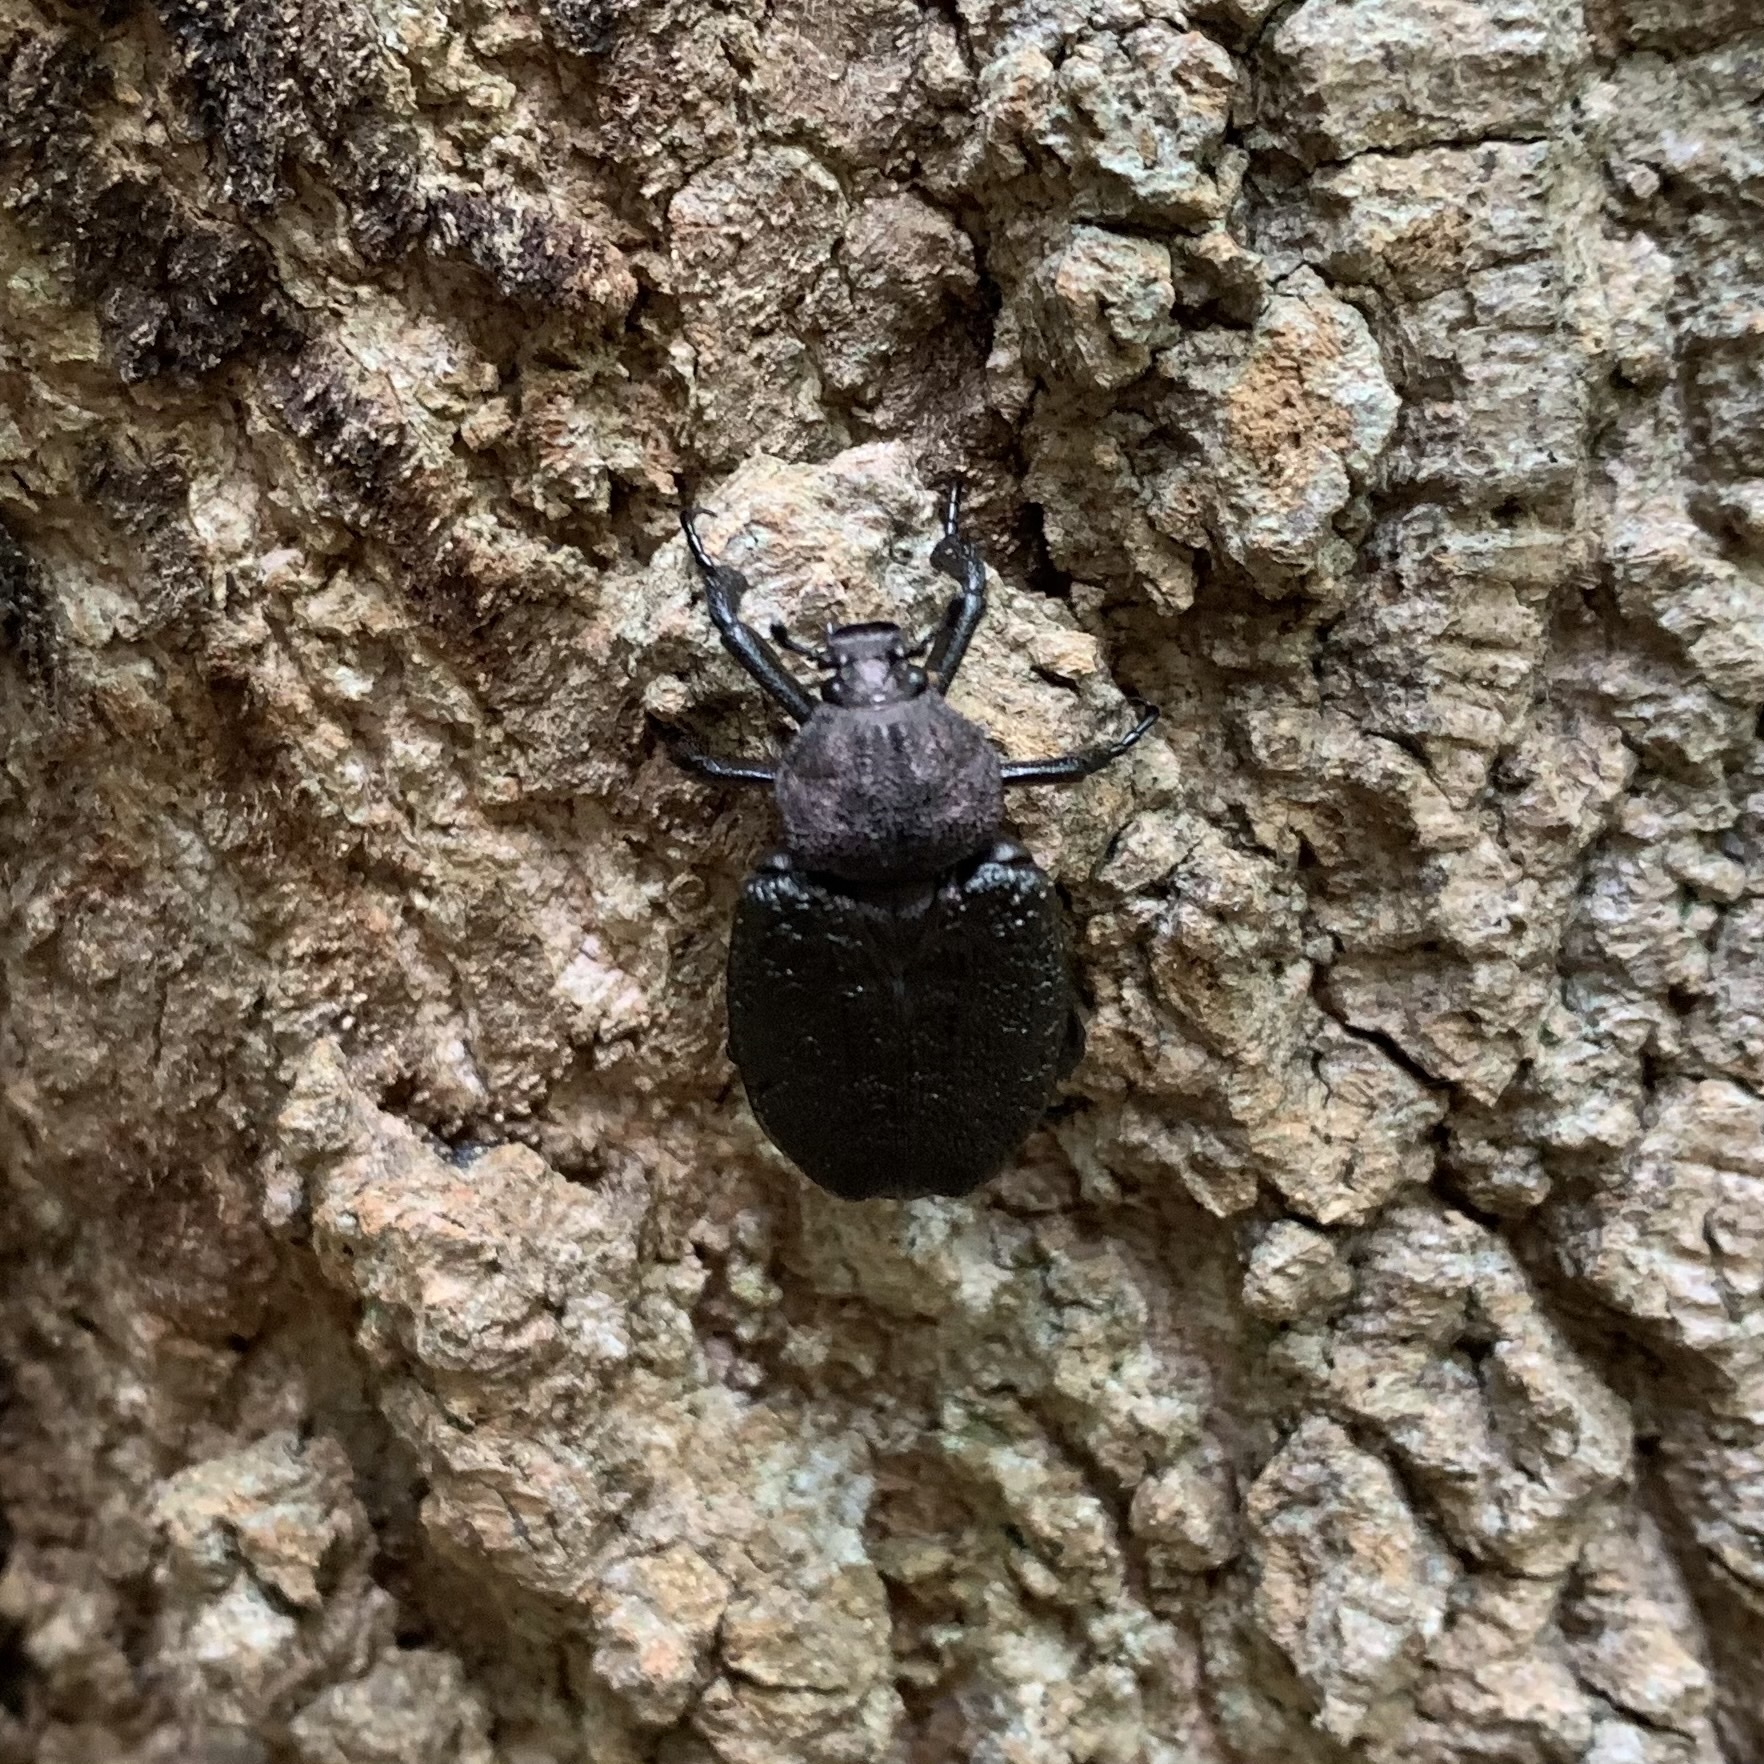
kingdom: Animalia
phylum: Arthropoda
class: Insecta
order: Coleoptera
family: Scarabaeidae
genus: Osmoderma
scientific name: Osmoderma scabra
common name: Rough hermit beetle
